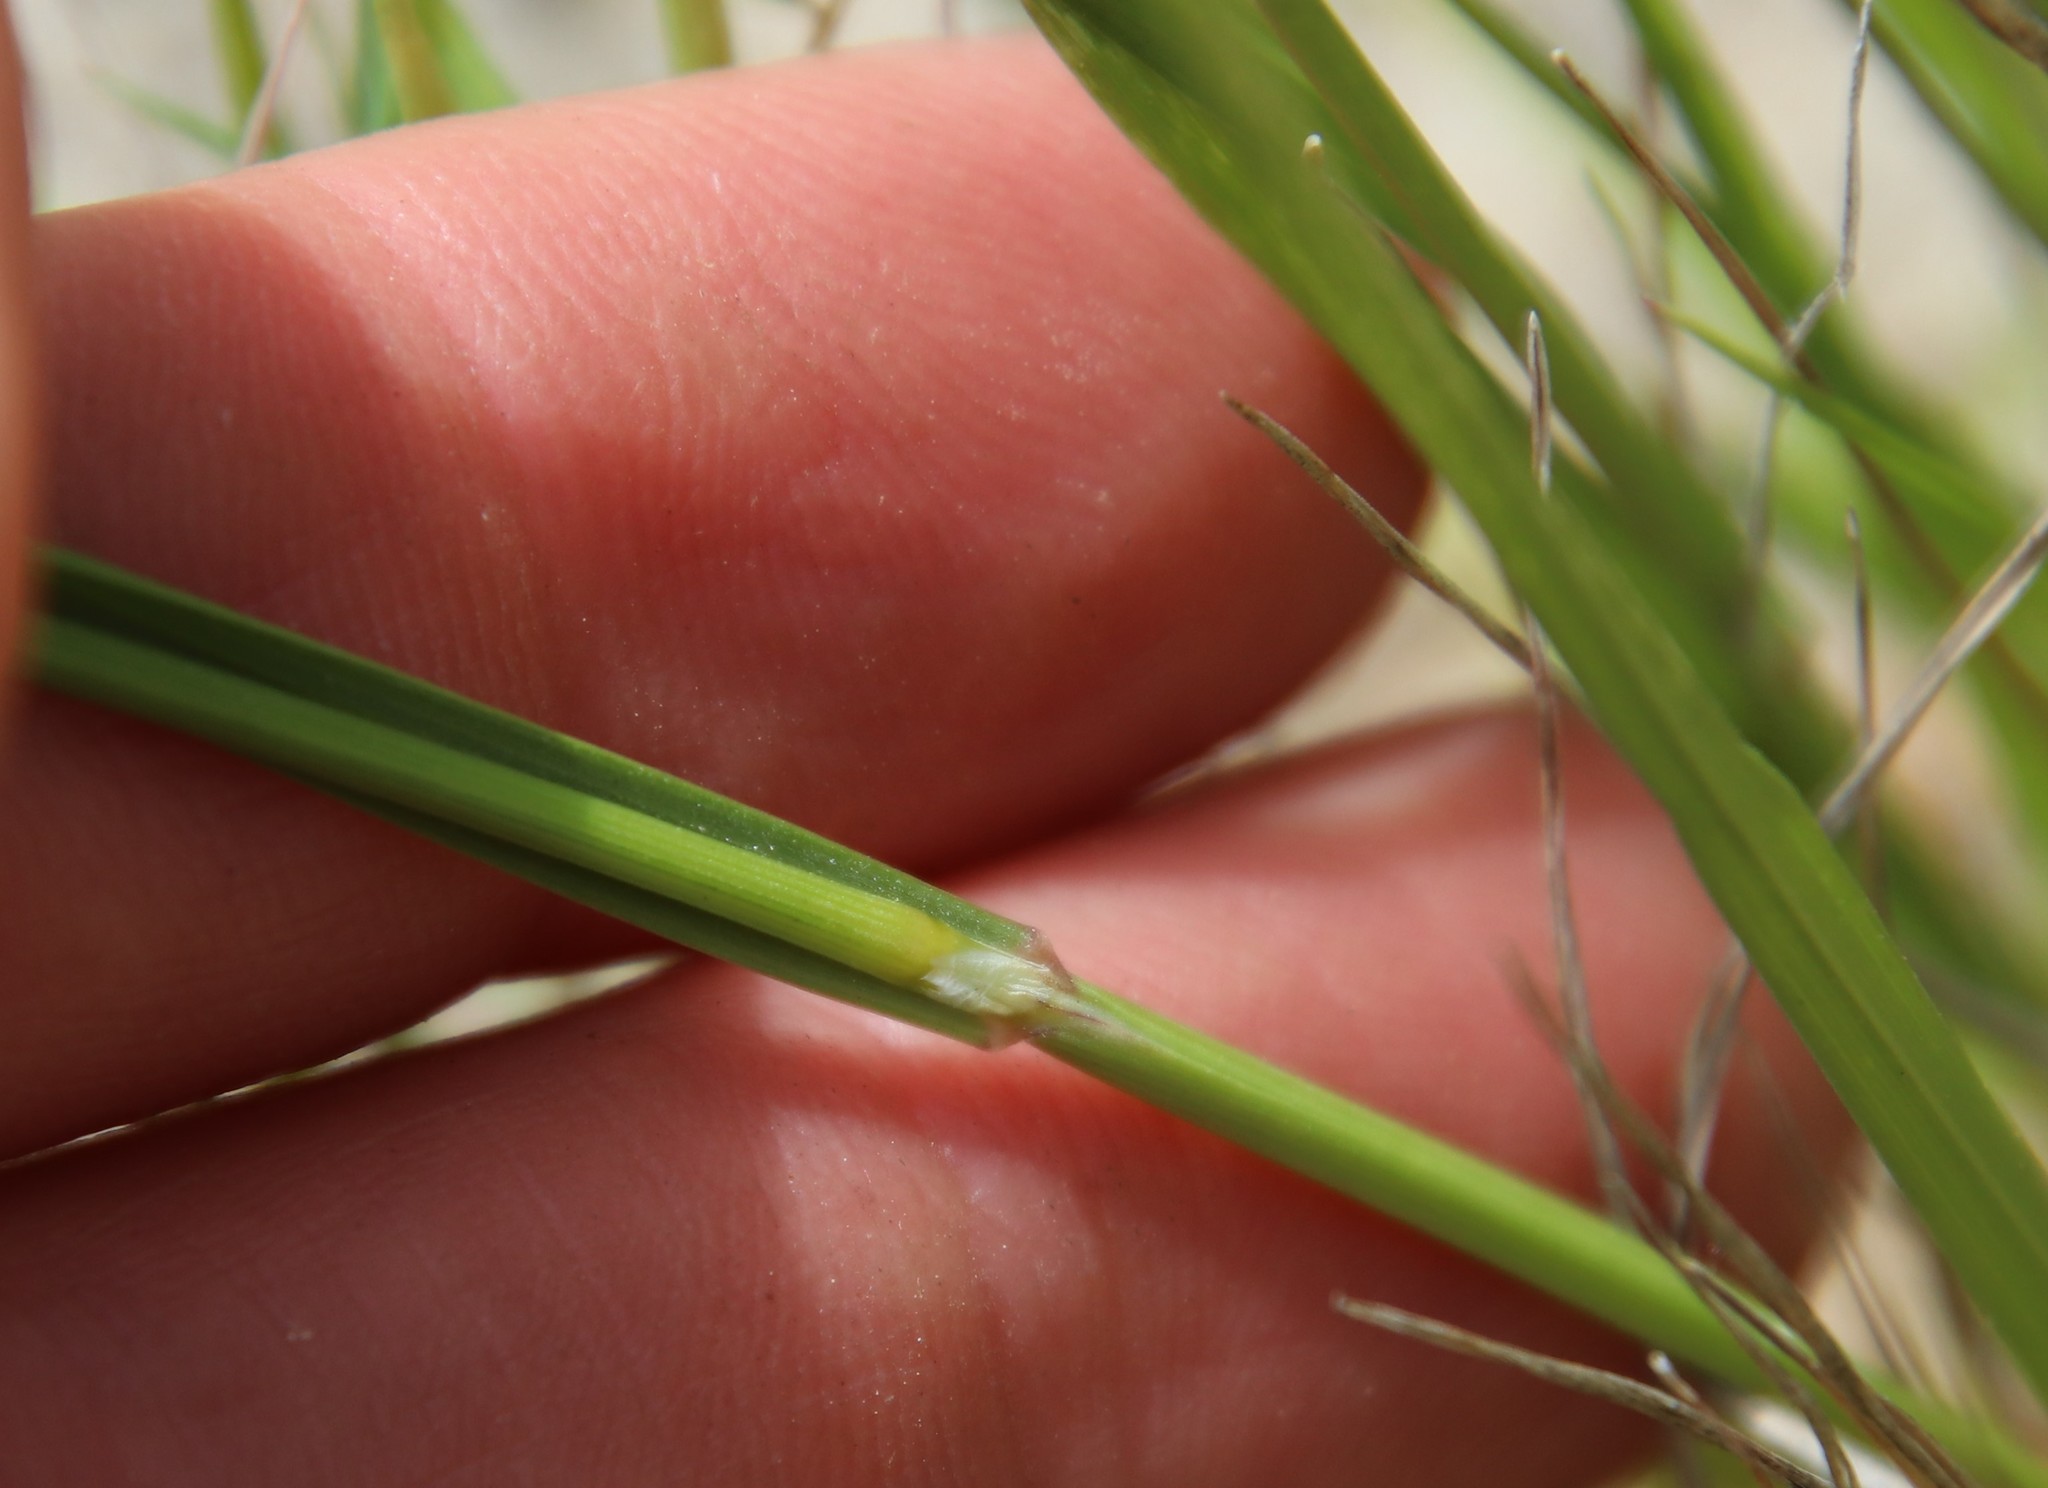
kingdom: Plantae
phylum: Tracheophyta
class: Liliopsida
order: Poales
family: Poaceae
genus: Melica
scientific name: Melica imperfecta
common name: California melic
